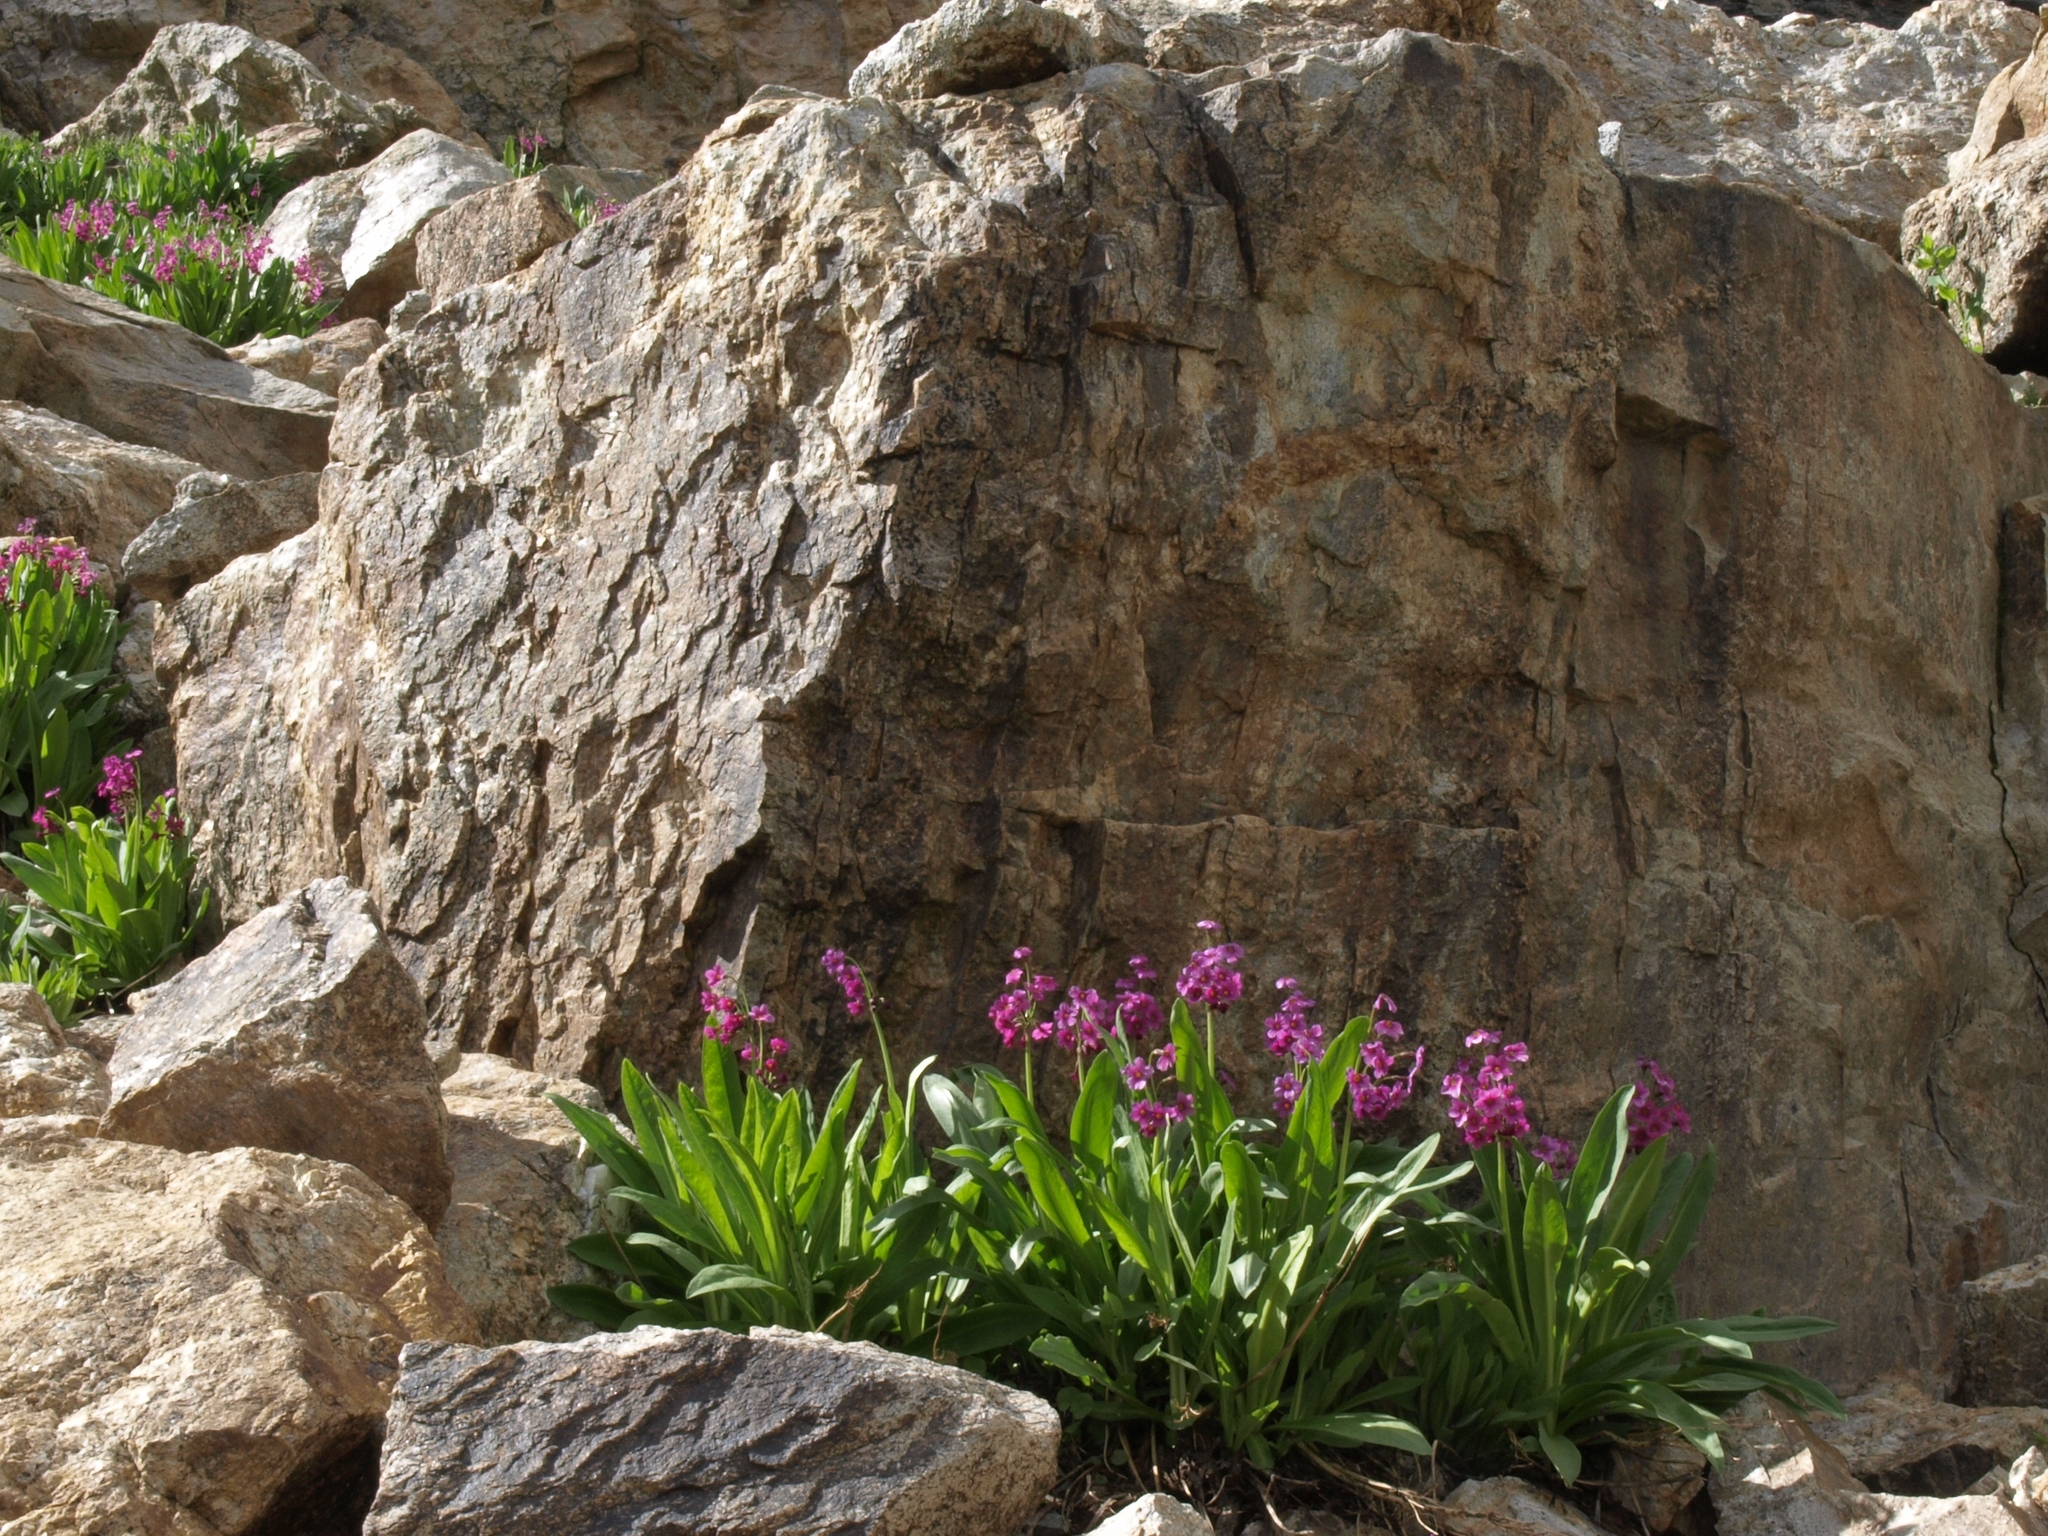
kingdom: Plantae
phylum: Tracheophyta
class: Magnoliopsida
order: Ericales
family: Primulaceae
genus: Primula
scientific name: Primula parryi
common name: Parry's primrose
